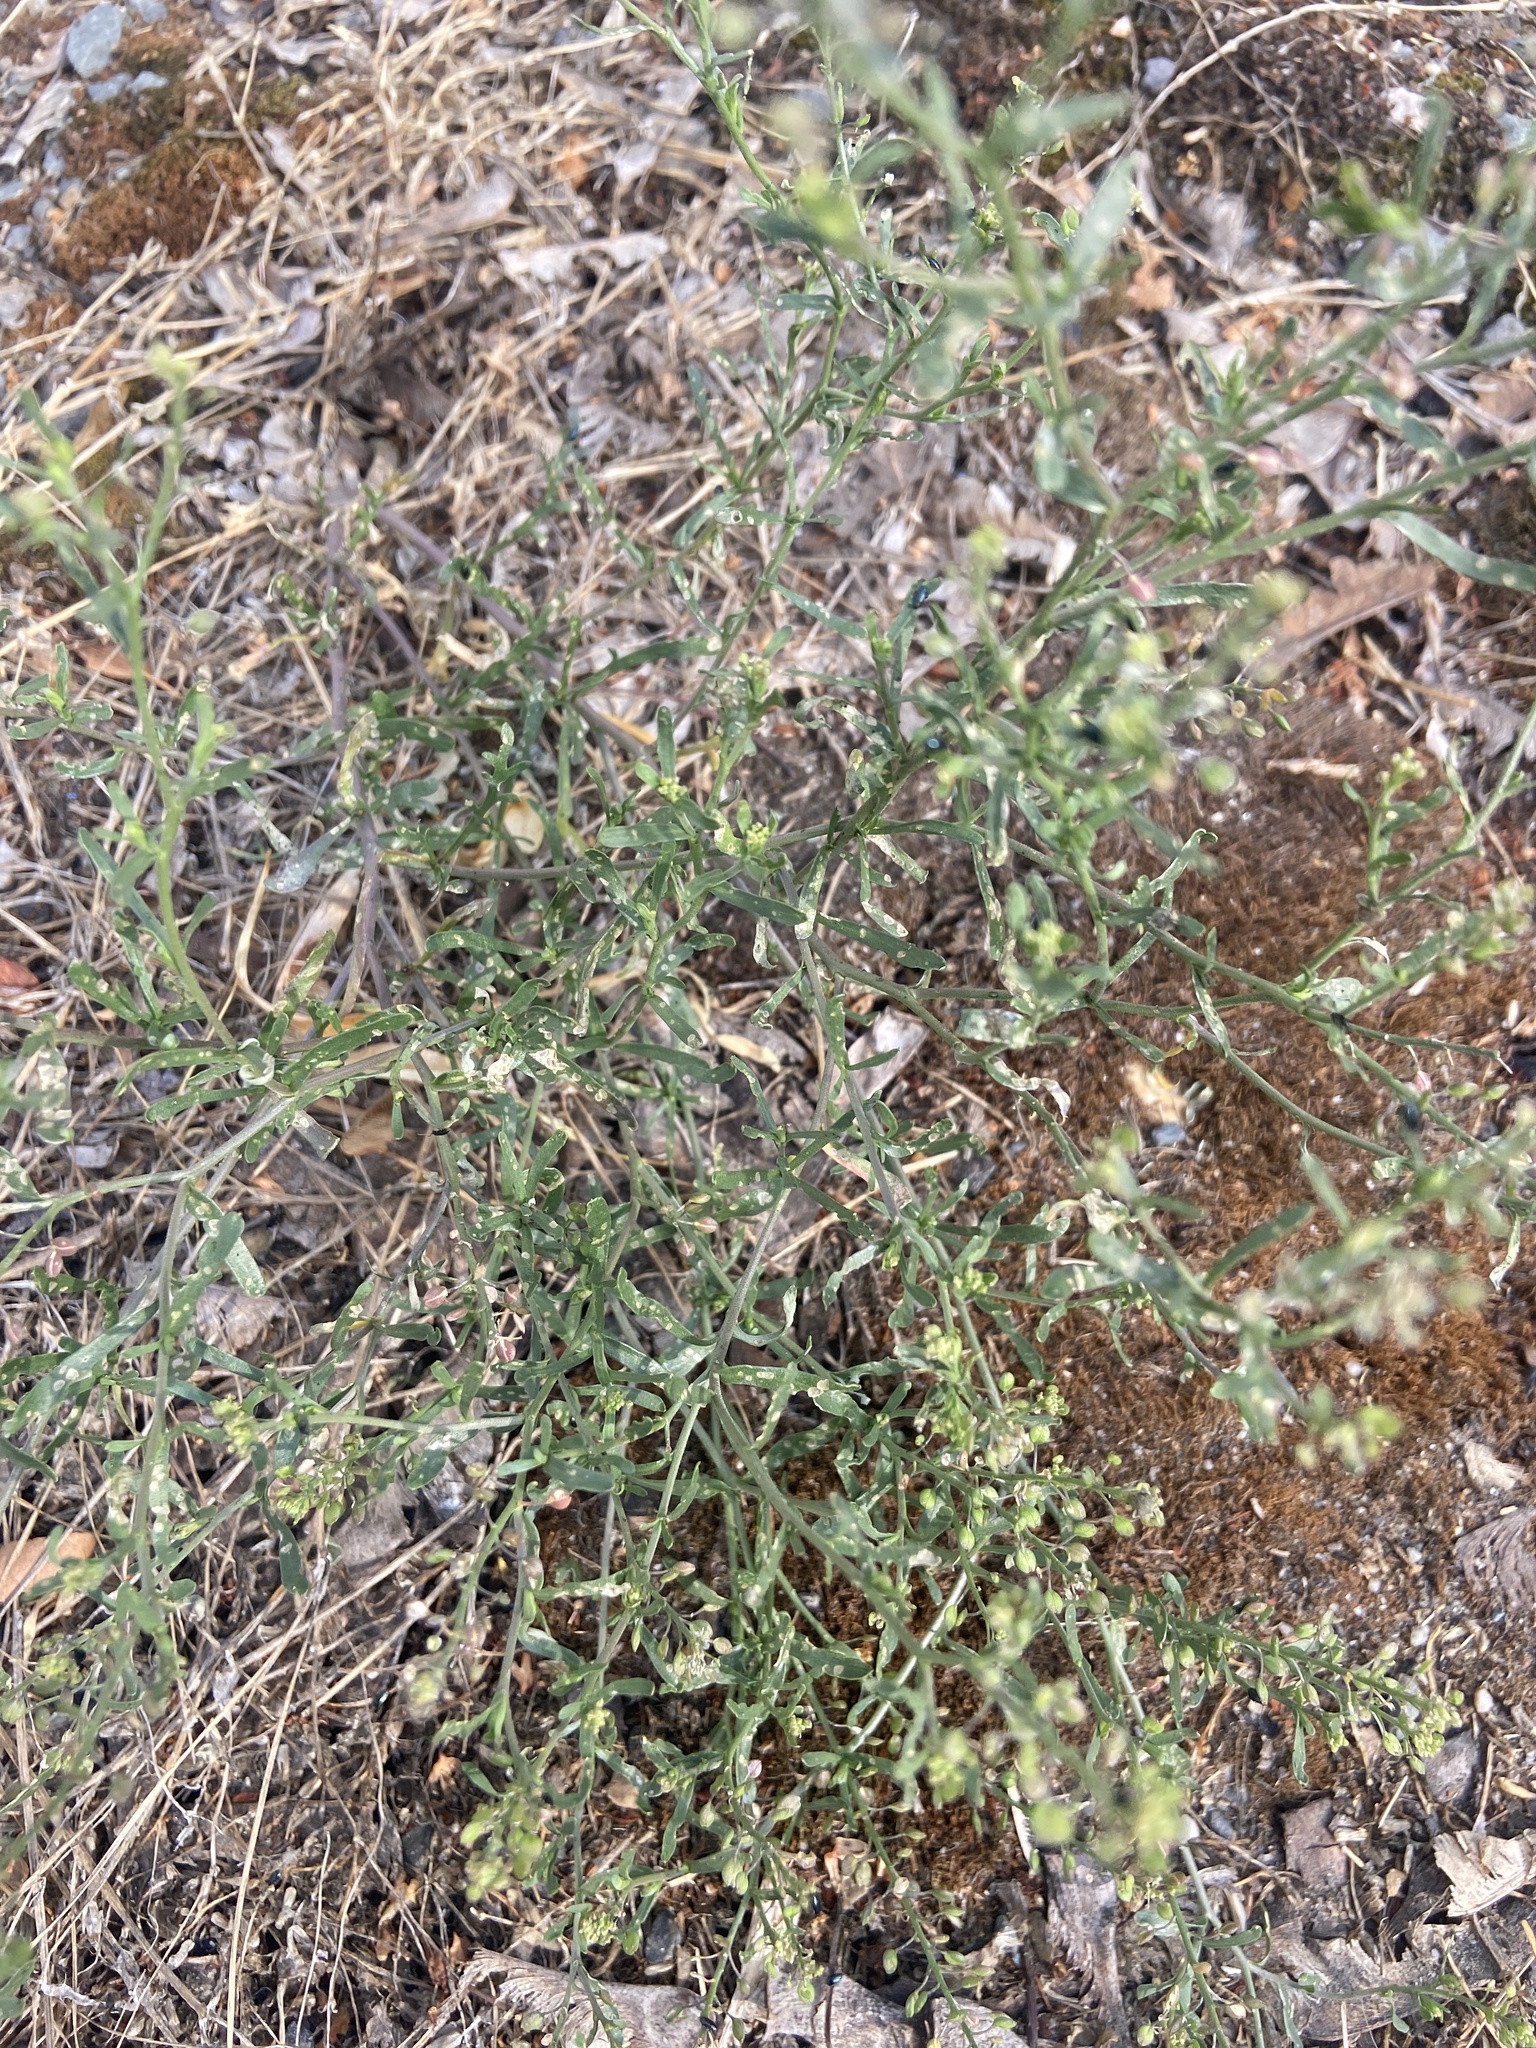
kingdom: Plantae
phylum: Tracheophyta
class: Magnoliopsida
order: Brassicales
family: Brassicaceae
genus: Lepidium
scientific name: Lepidium ruderale
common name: Narrow-leaved pepperwort
